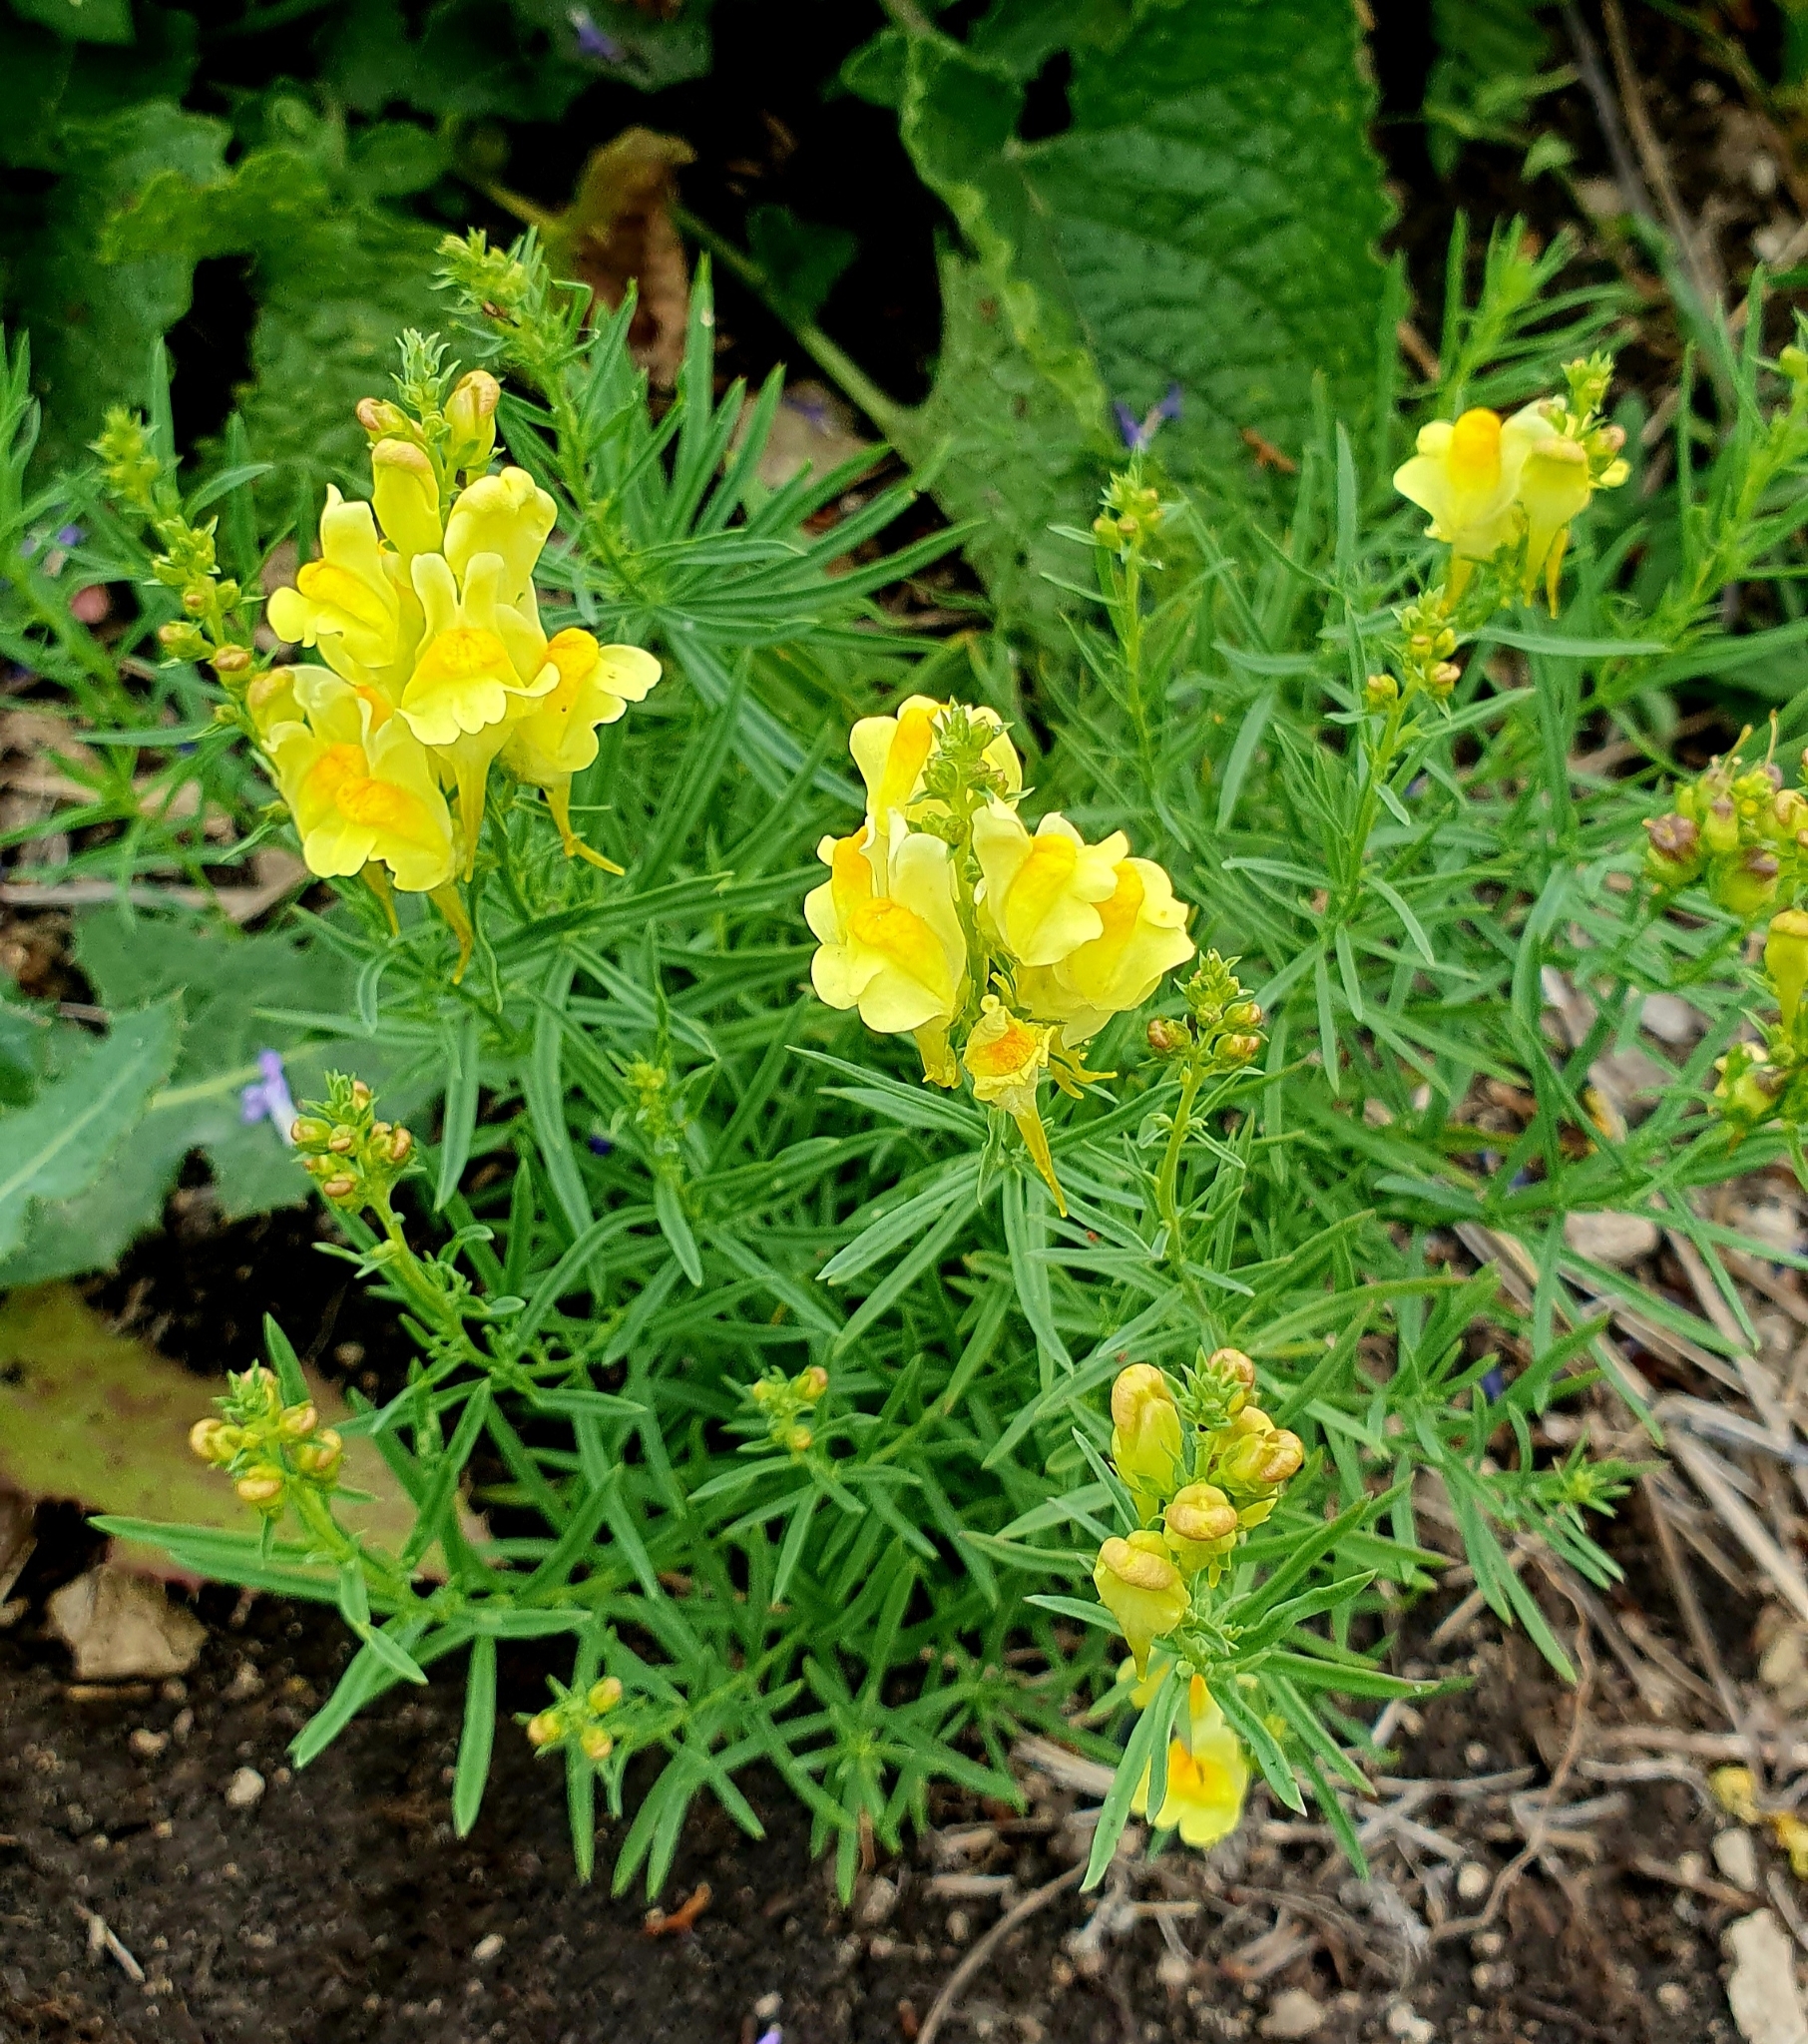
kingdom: Plantae
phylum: Tracheophyta
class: Magnoliopsida
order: Lamiales
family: Plantaginaceae
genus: Linaria
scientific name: Linaria vulgaris
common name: Butter and eggs
